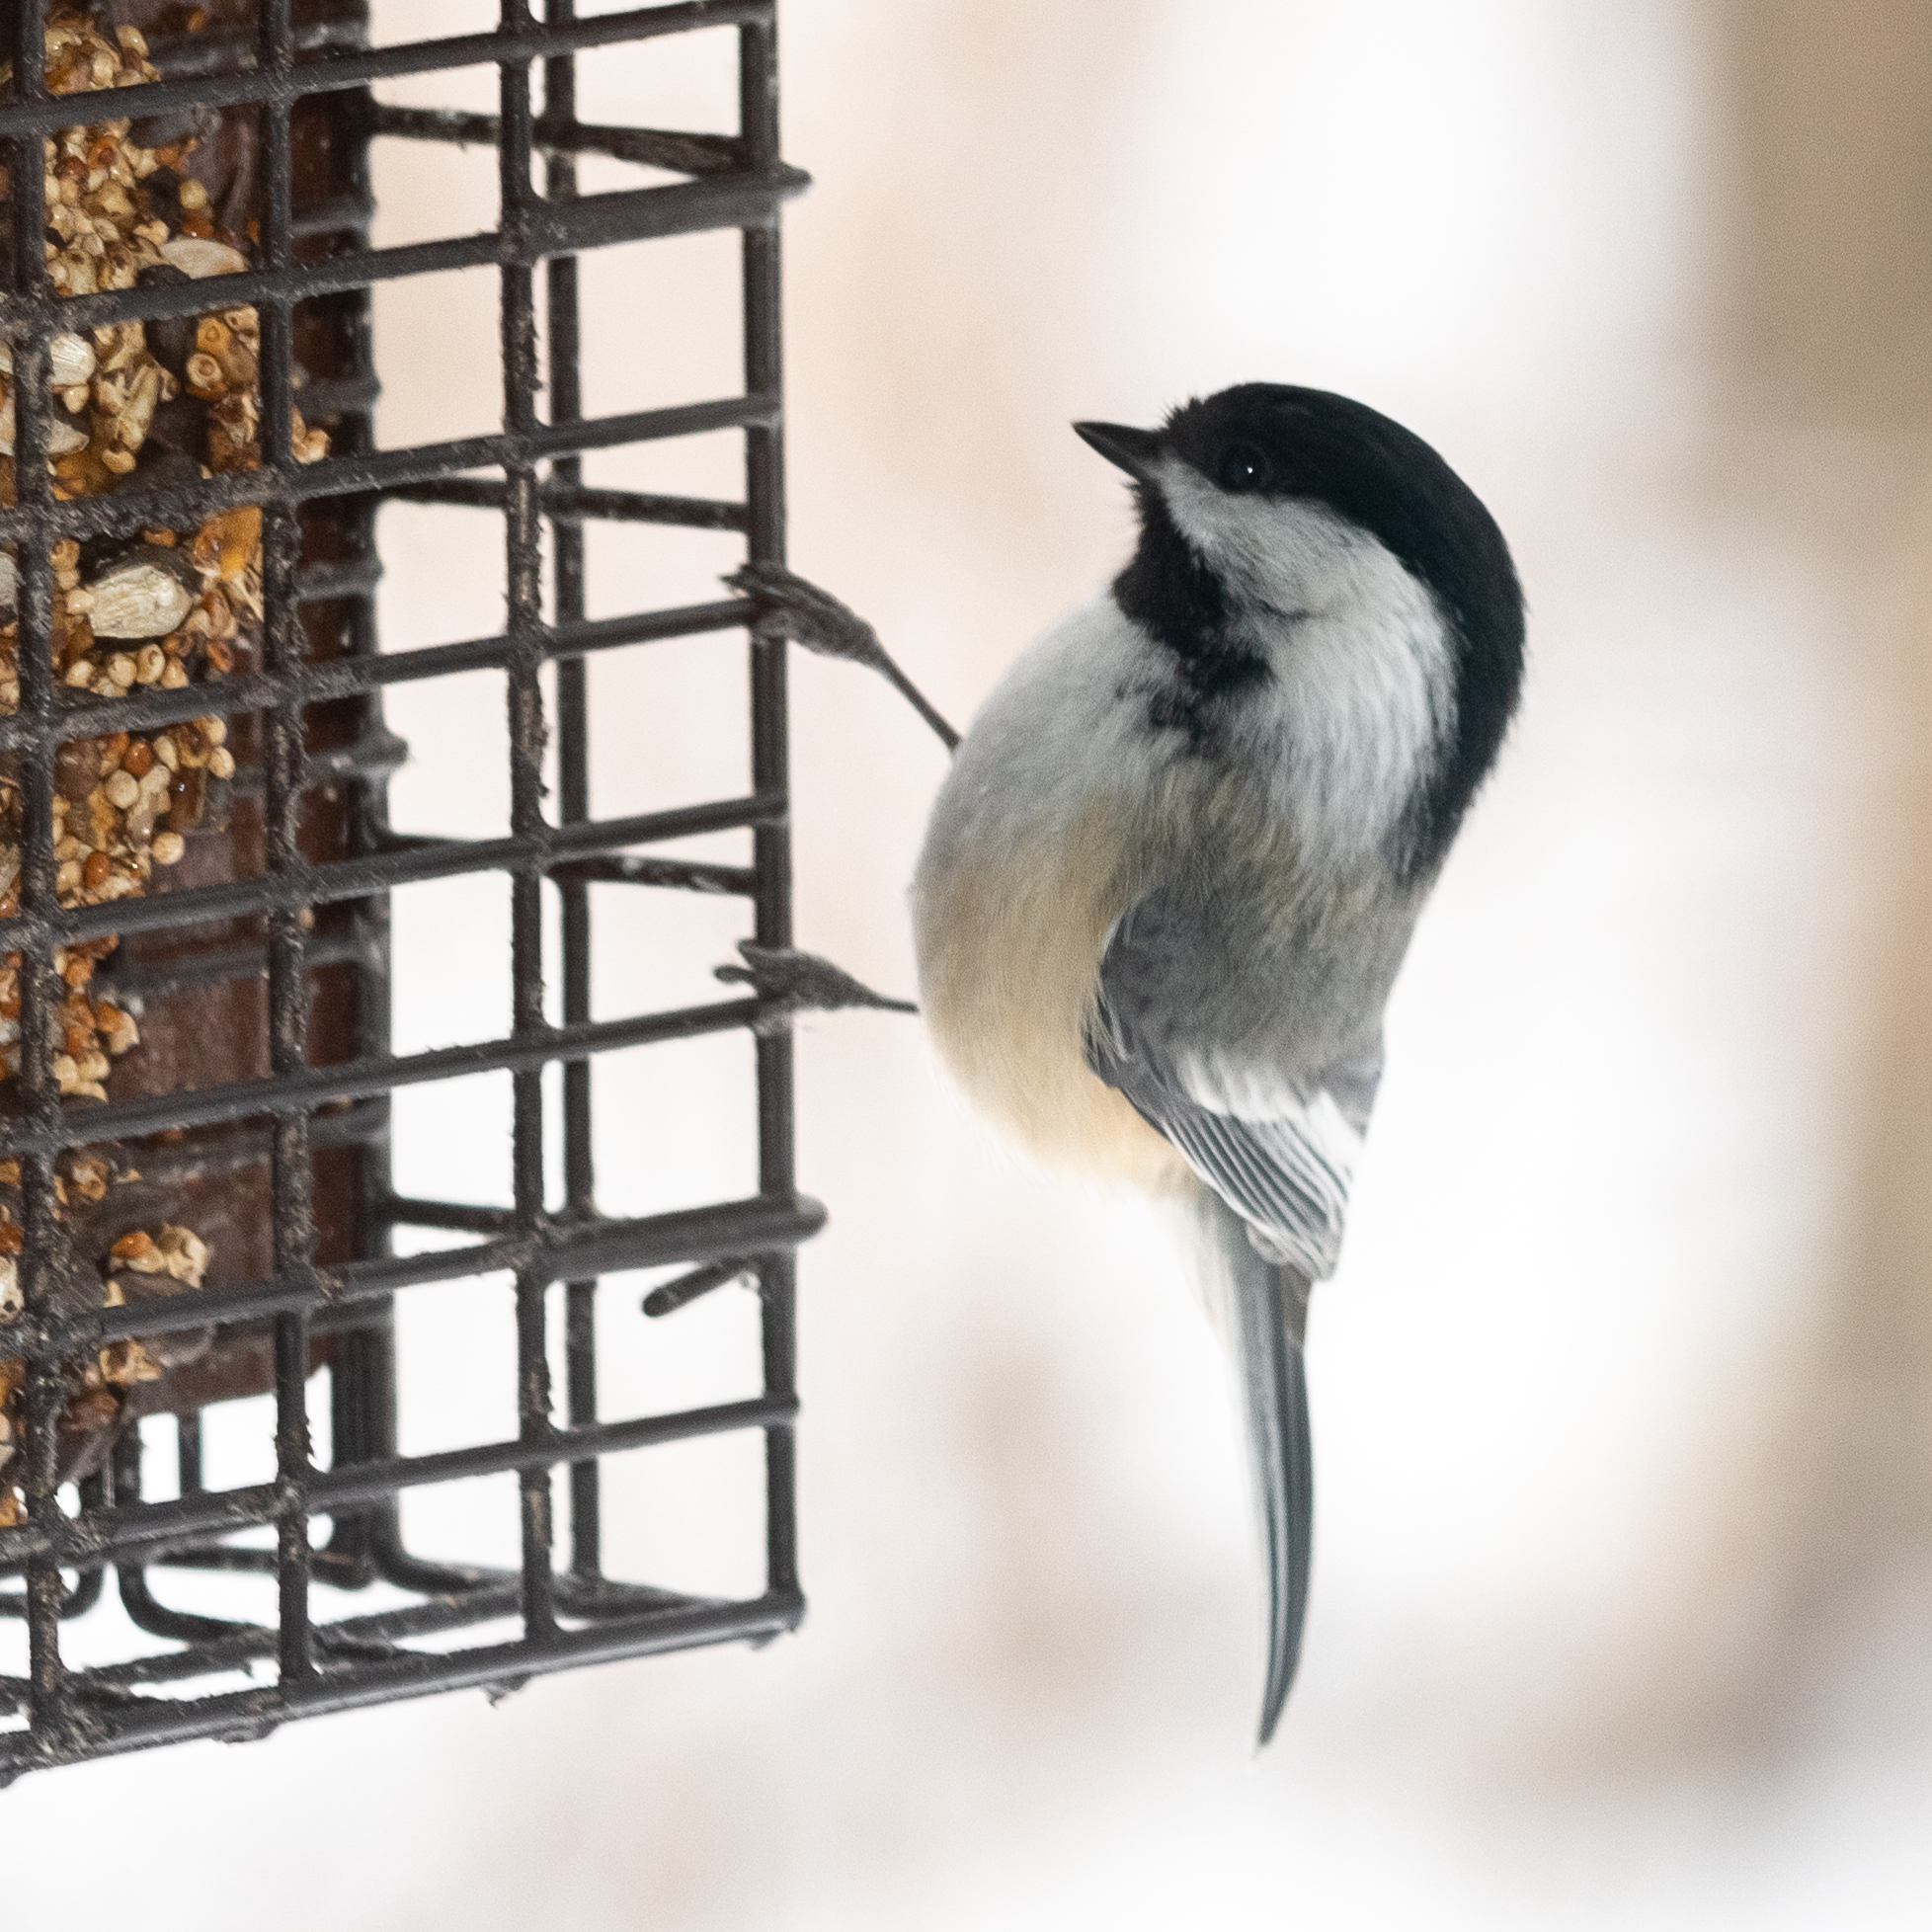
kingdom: Animalia
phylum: Chordata
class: Aves
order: Passeriformes
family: Paridae
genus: Poecile
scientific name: Poecile atricapillus
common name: Black-capped chickadee
